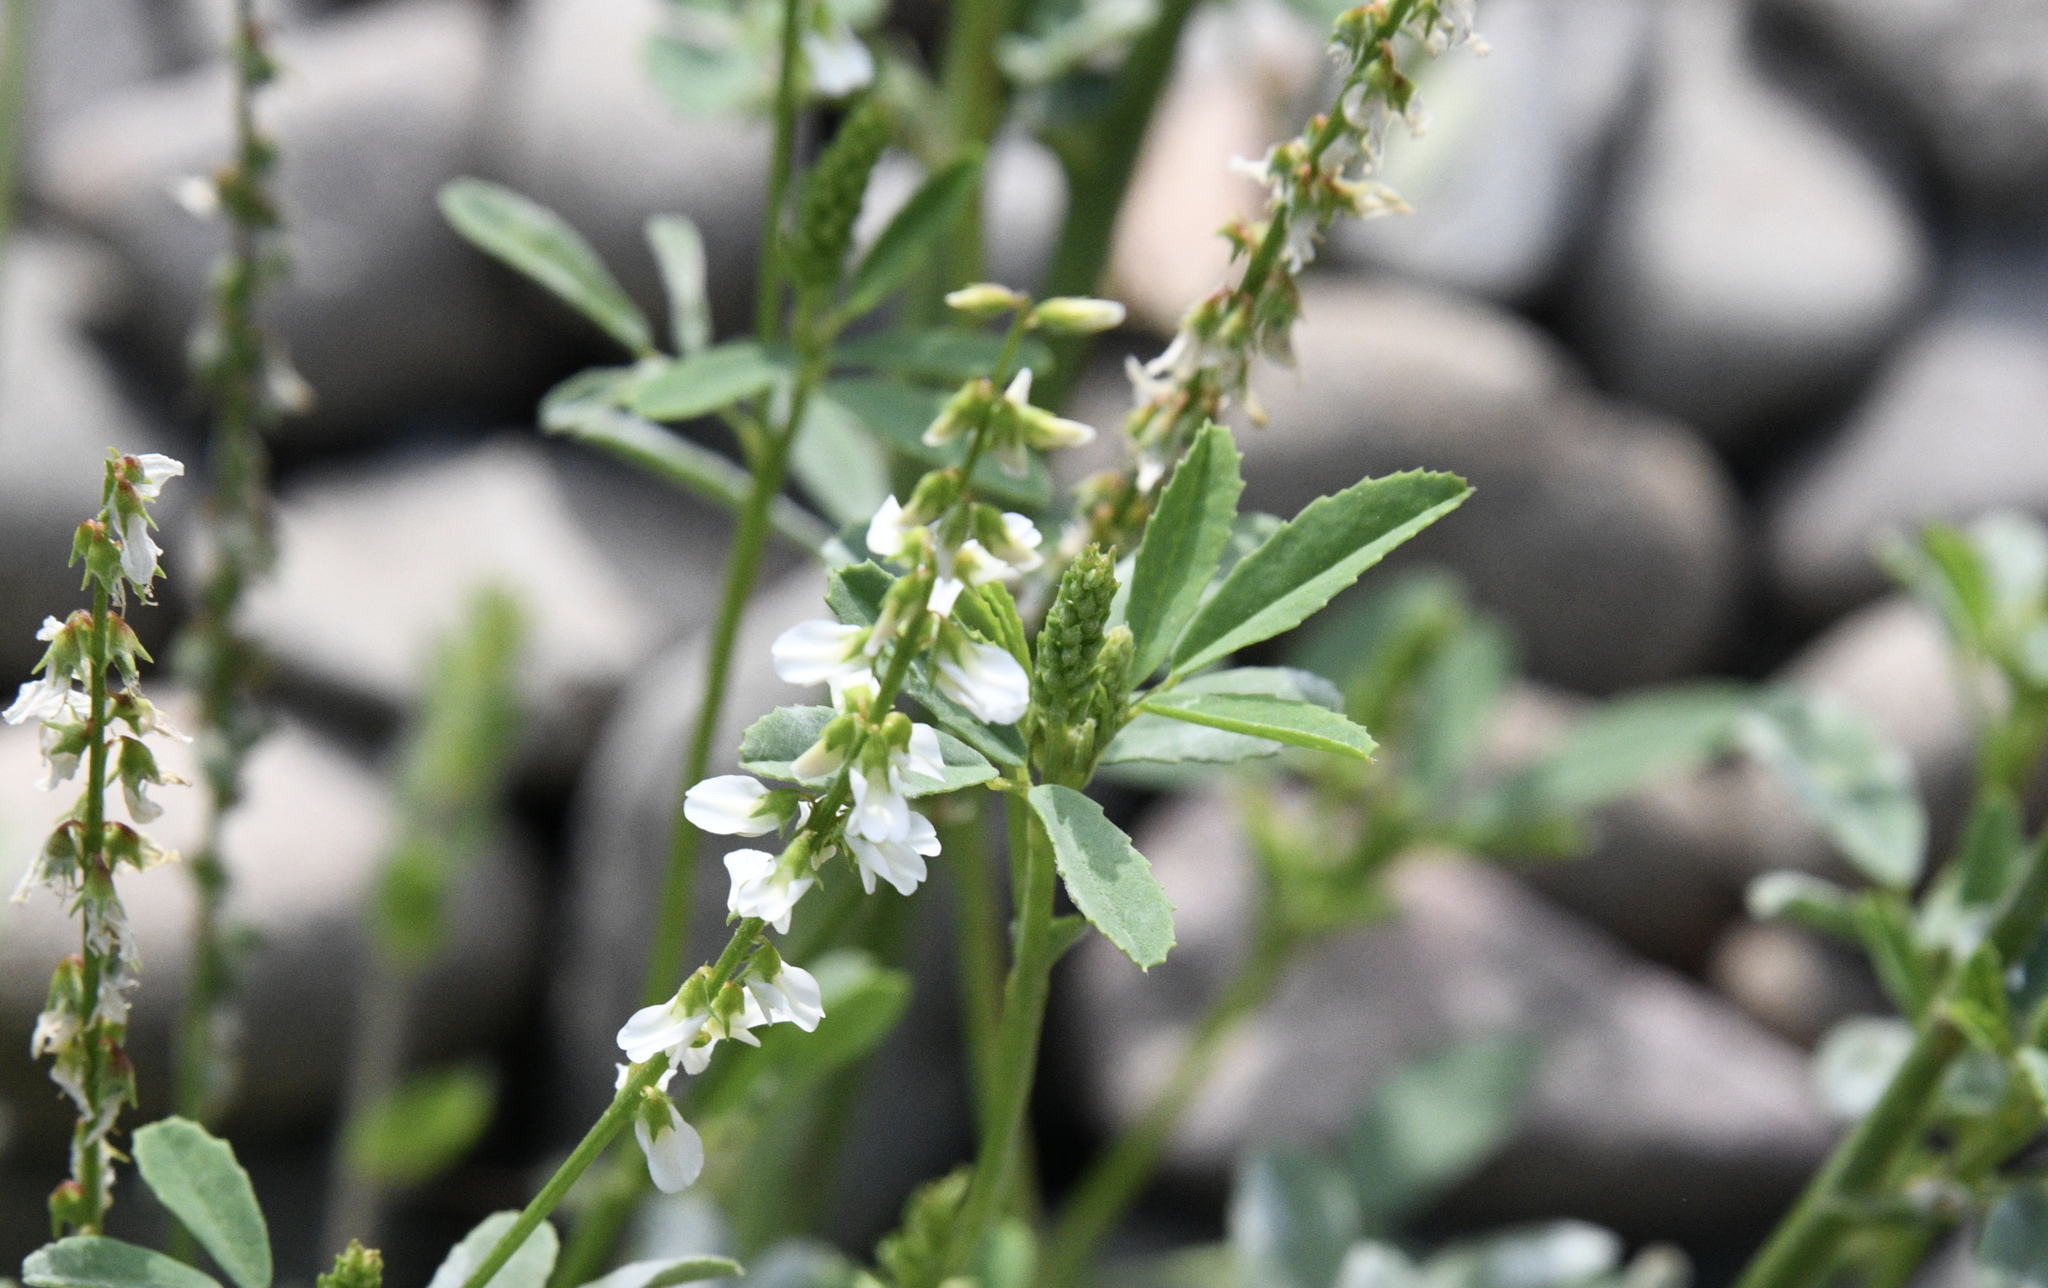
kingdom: Plantae
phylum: Tracheophyta
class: Magnoliopsida
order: Fabales
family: Fabaceae
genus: Melilotus
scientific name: Melilotus albus
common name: White melilot
